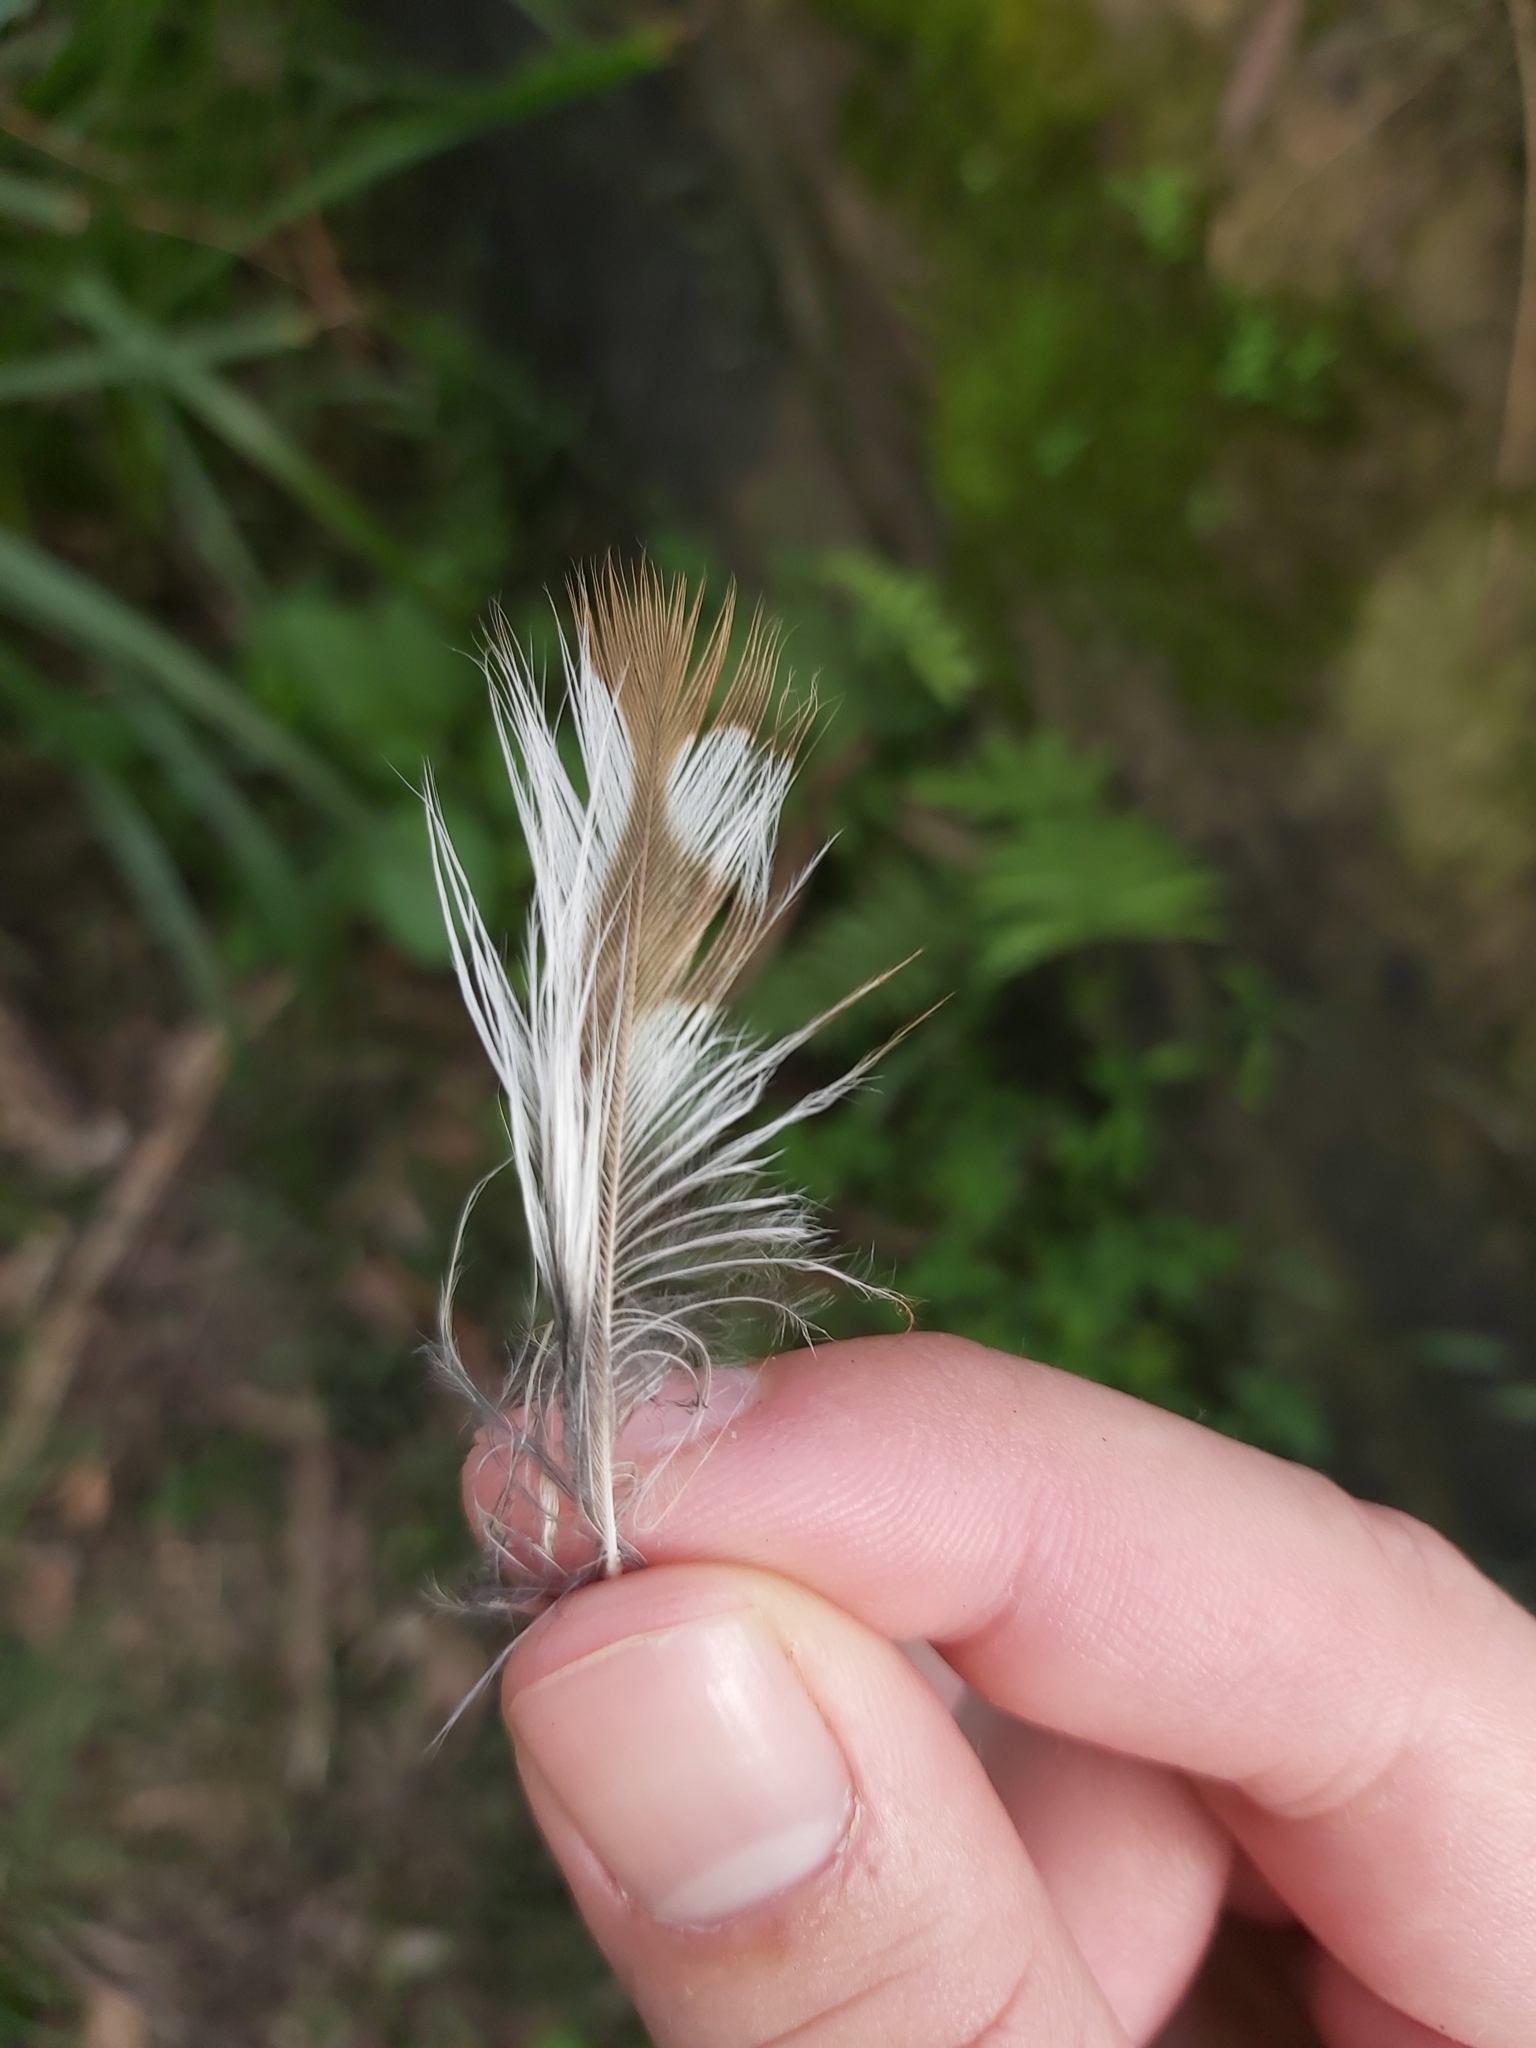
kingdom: Animalia
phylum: Chordata
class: Aves
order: Strigiformes
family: Strigidae
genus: Ninox
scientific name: Ninox boobook
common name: Southern boobook
